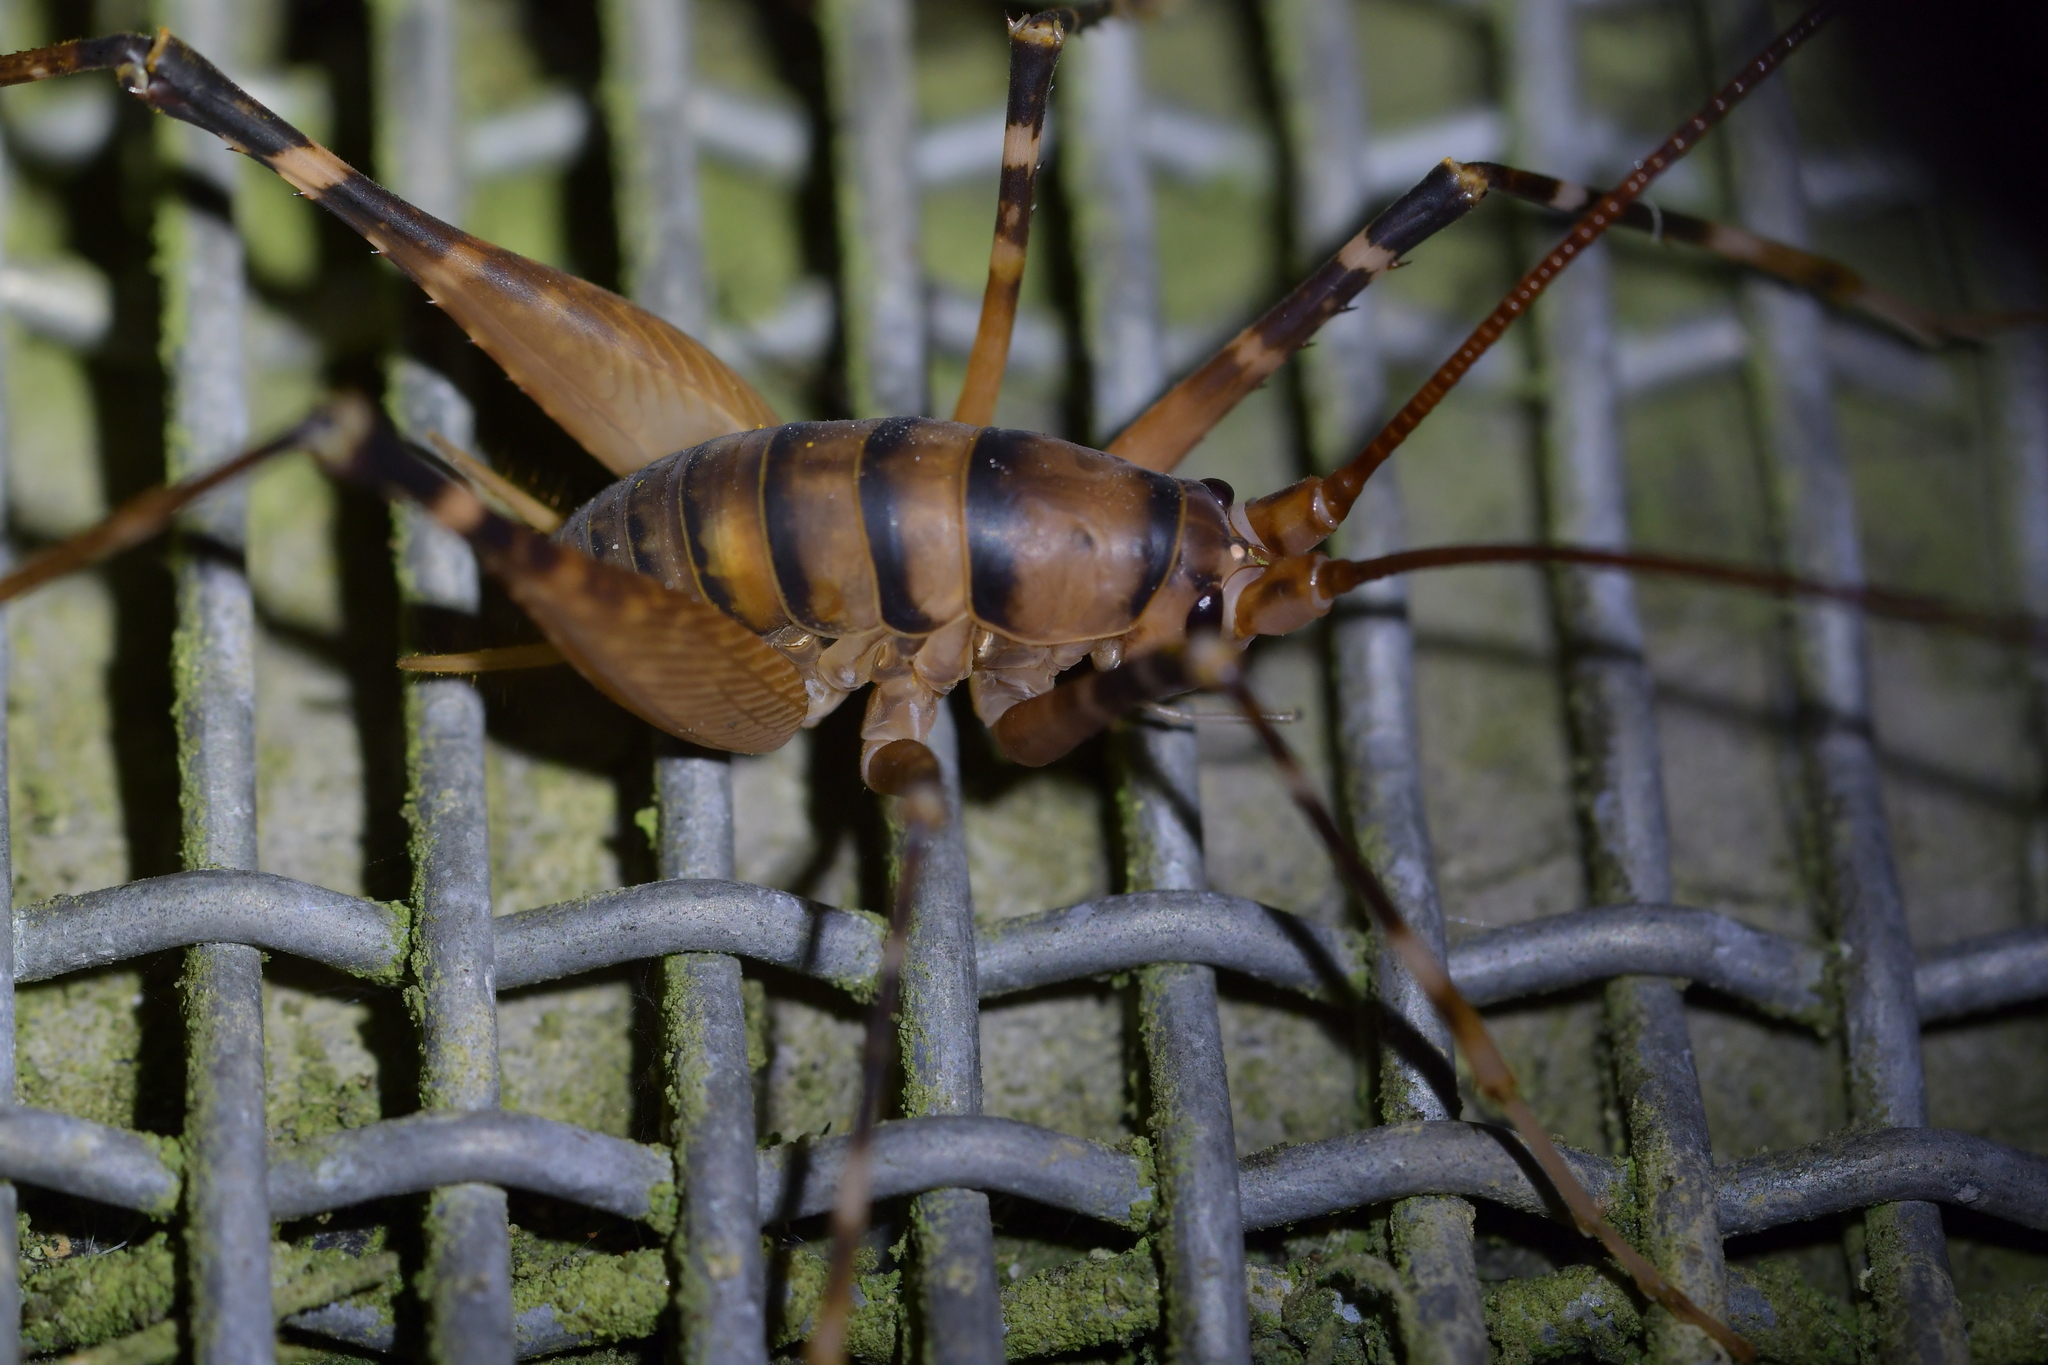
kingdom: Animalia
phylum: Arthropoda
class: Insecta
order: Orthoptera
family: Rhaphidophoridae
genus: Pachyrhamma
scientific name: Pachyrhamma edwardsii
